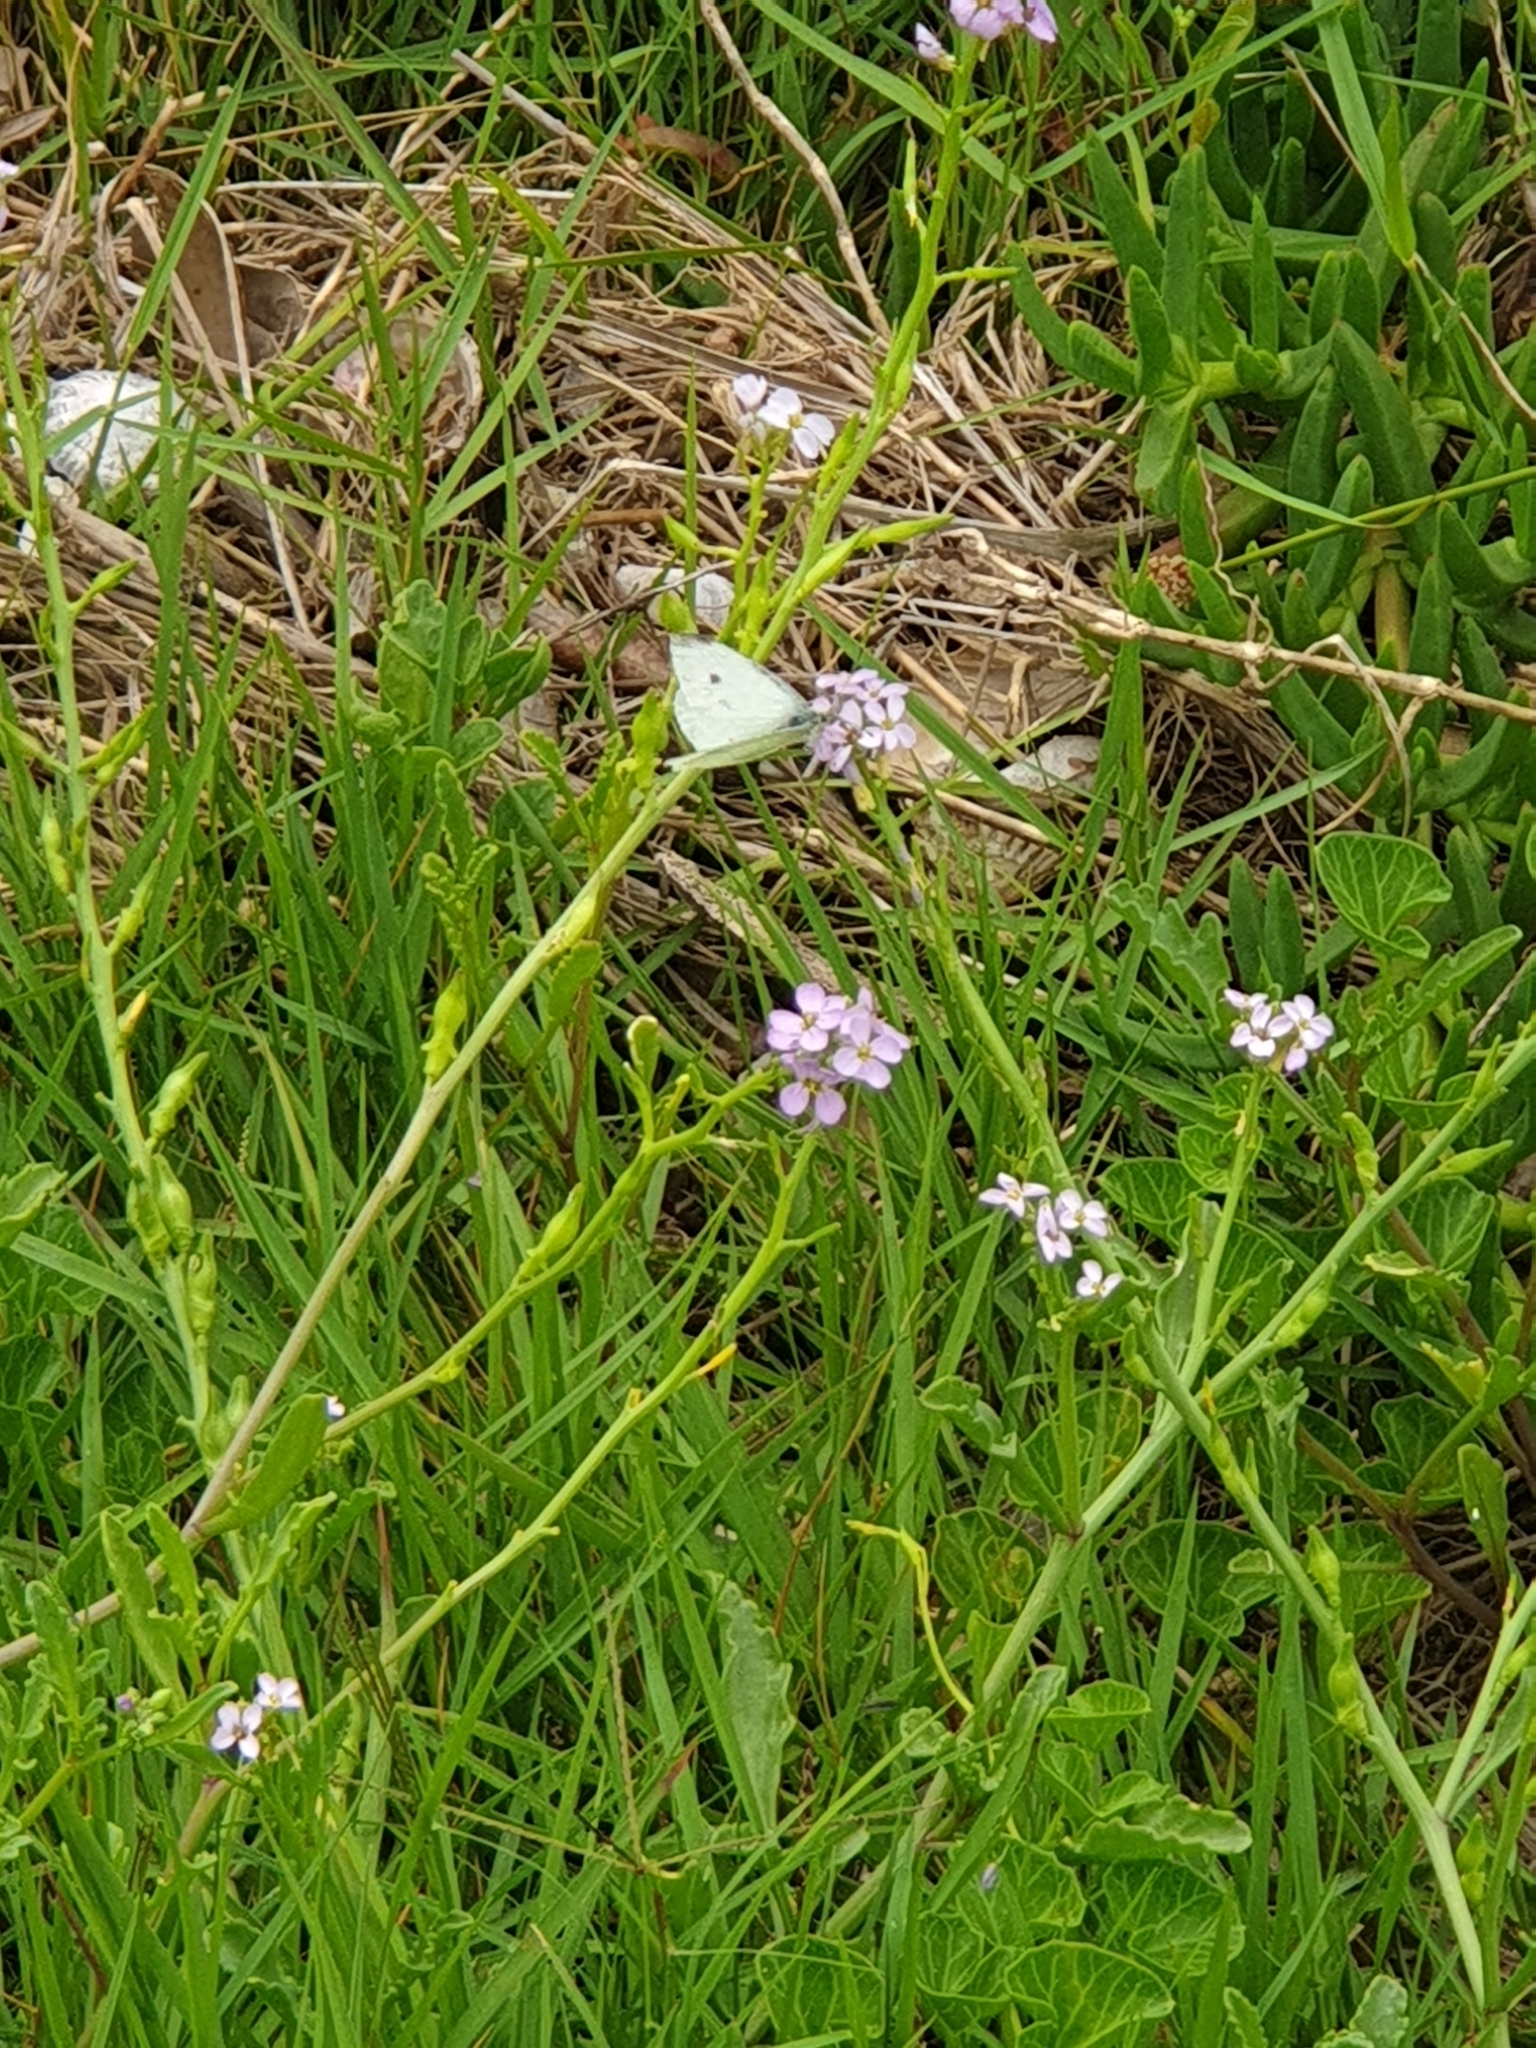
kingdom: Animalia
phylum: Arthropoda
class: Insecta
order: Lepidoptera
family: Pieridae
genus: Pieris
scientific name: Pieris rapae
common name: Small white
